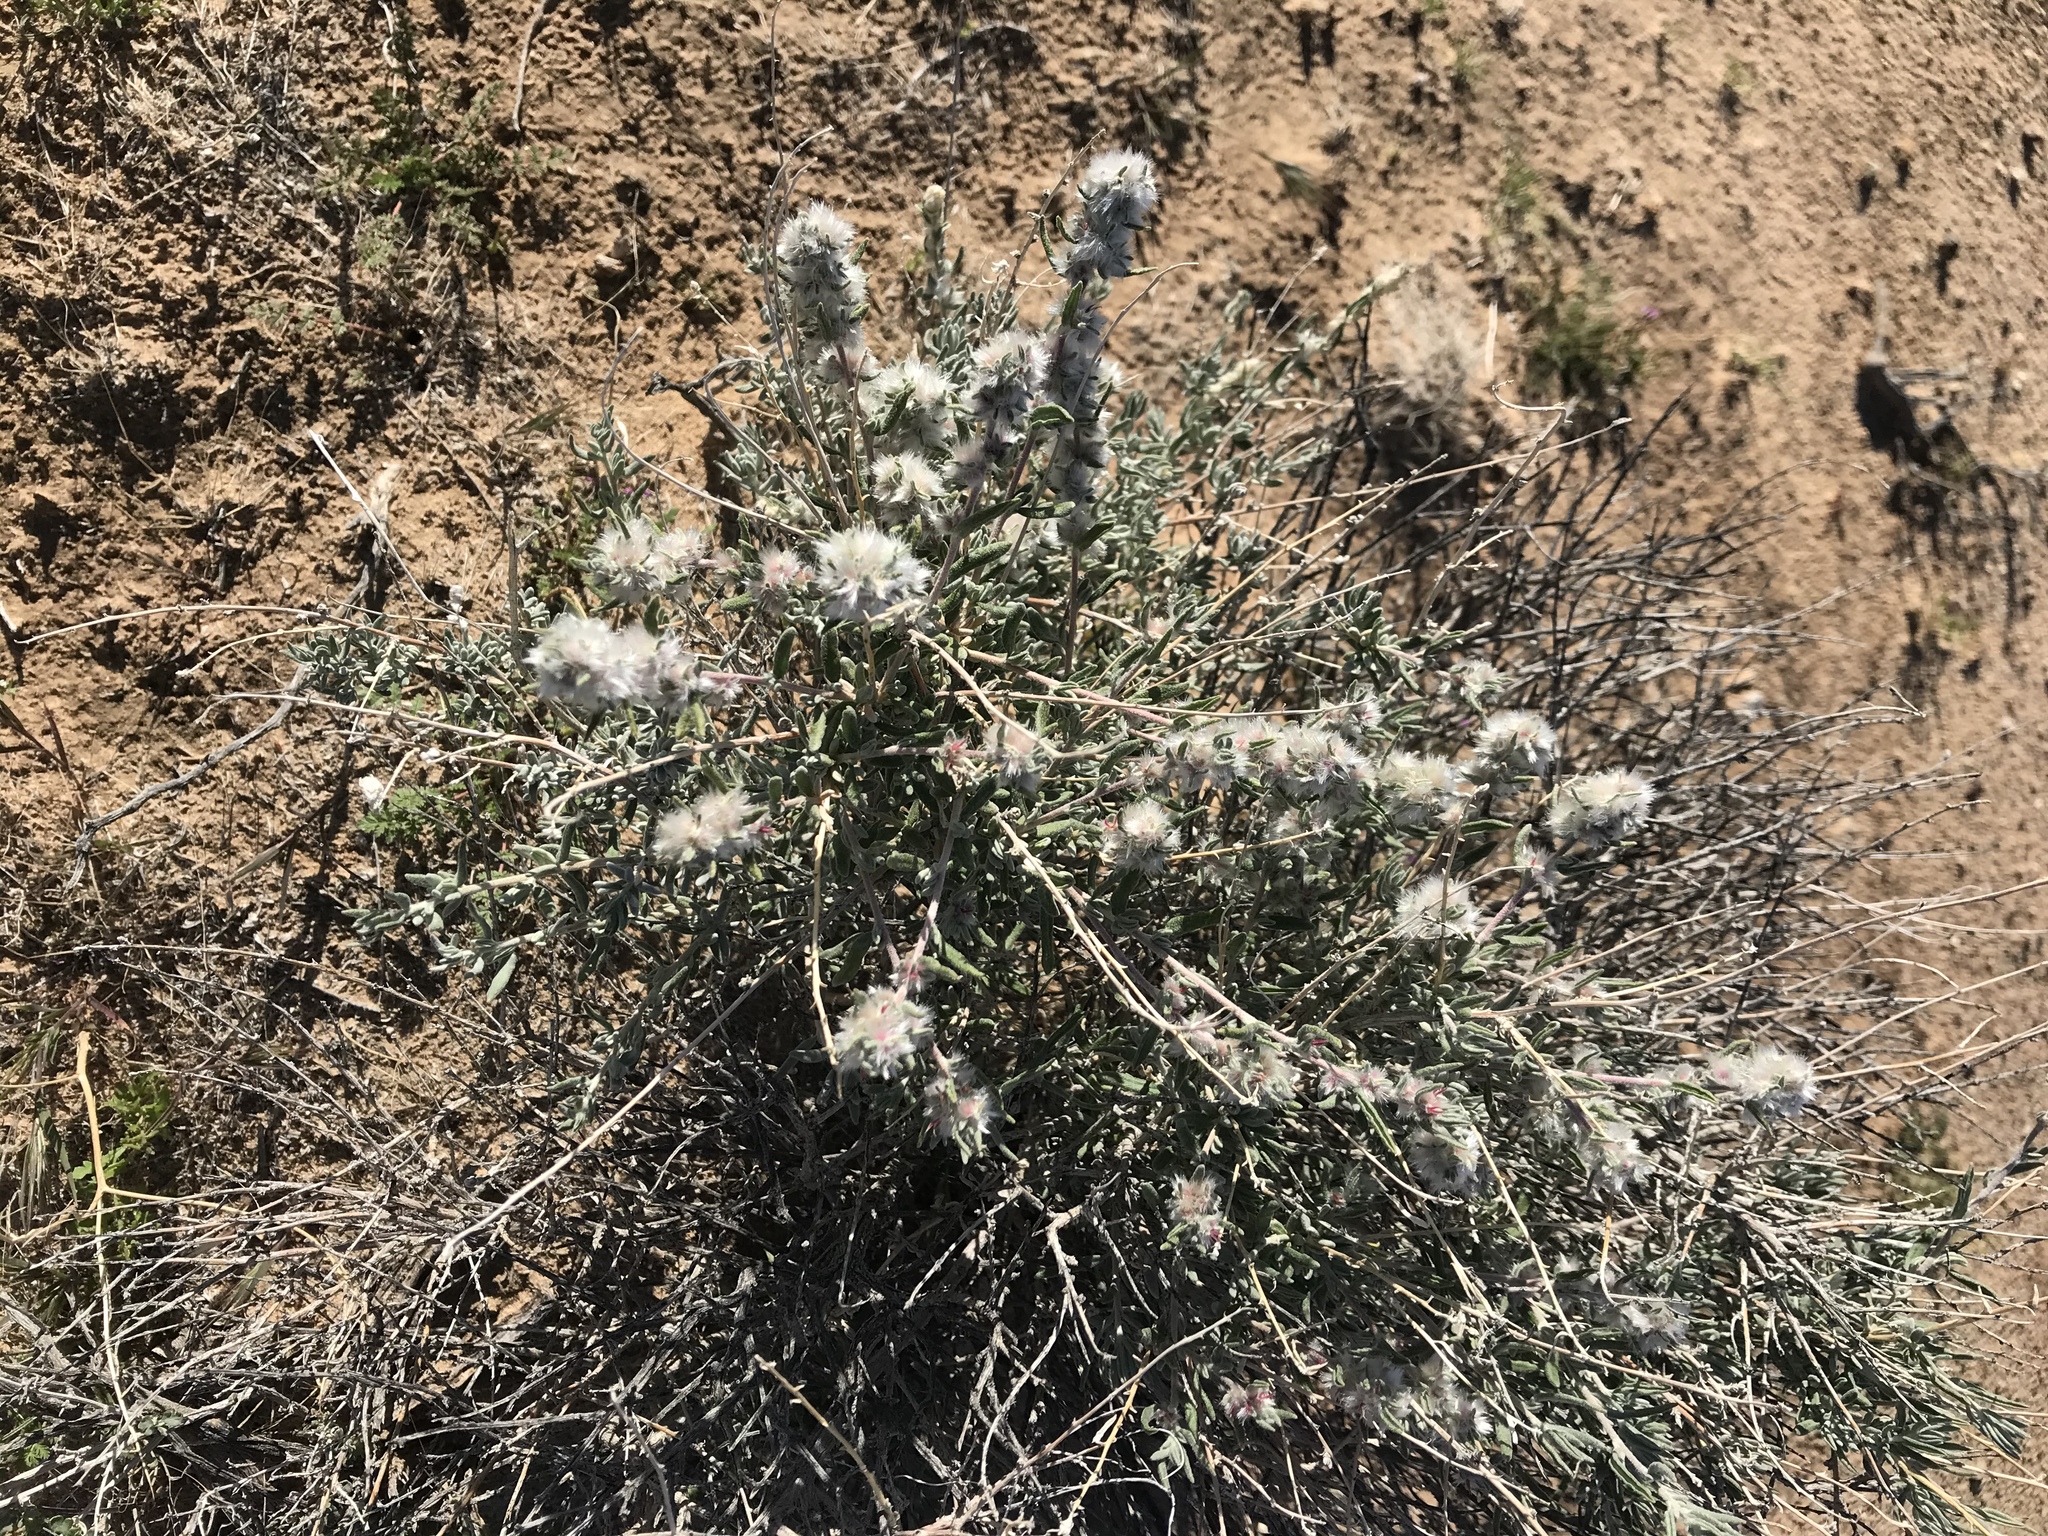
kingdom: Plantae
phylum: Tracheophyta
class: Magnoliopsida
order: Caryophyllales
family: Amaranthaceae
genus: Krascheninnikovia
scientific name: Krascheninnikovia lanata
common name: Winterfat
